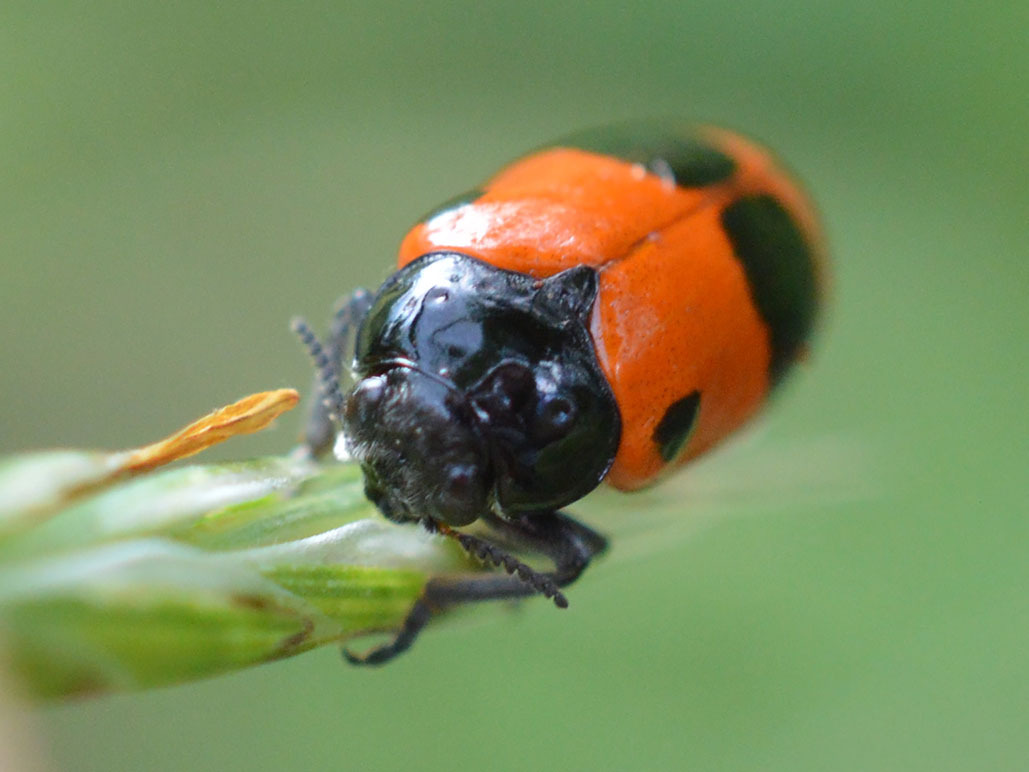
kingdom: Animalia
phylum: Arthropoda
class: Insecta
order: Coleoptera
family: Chrysomelidae
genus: Clytra
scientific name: Clytra laeviuscula
